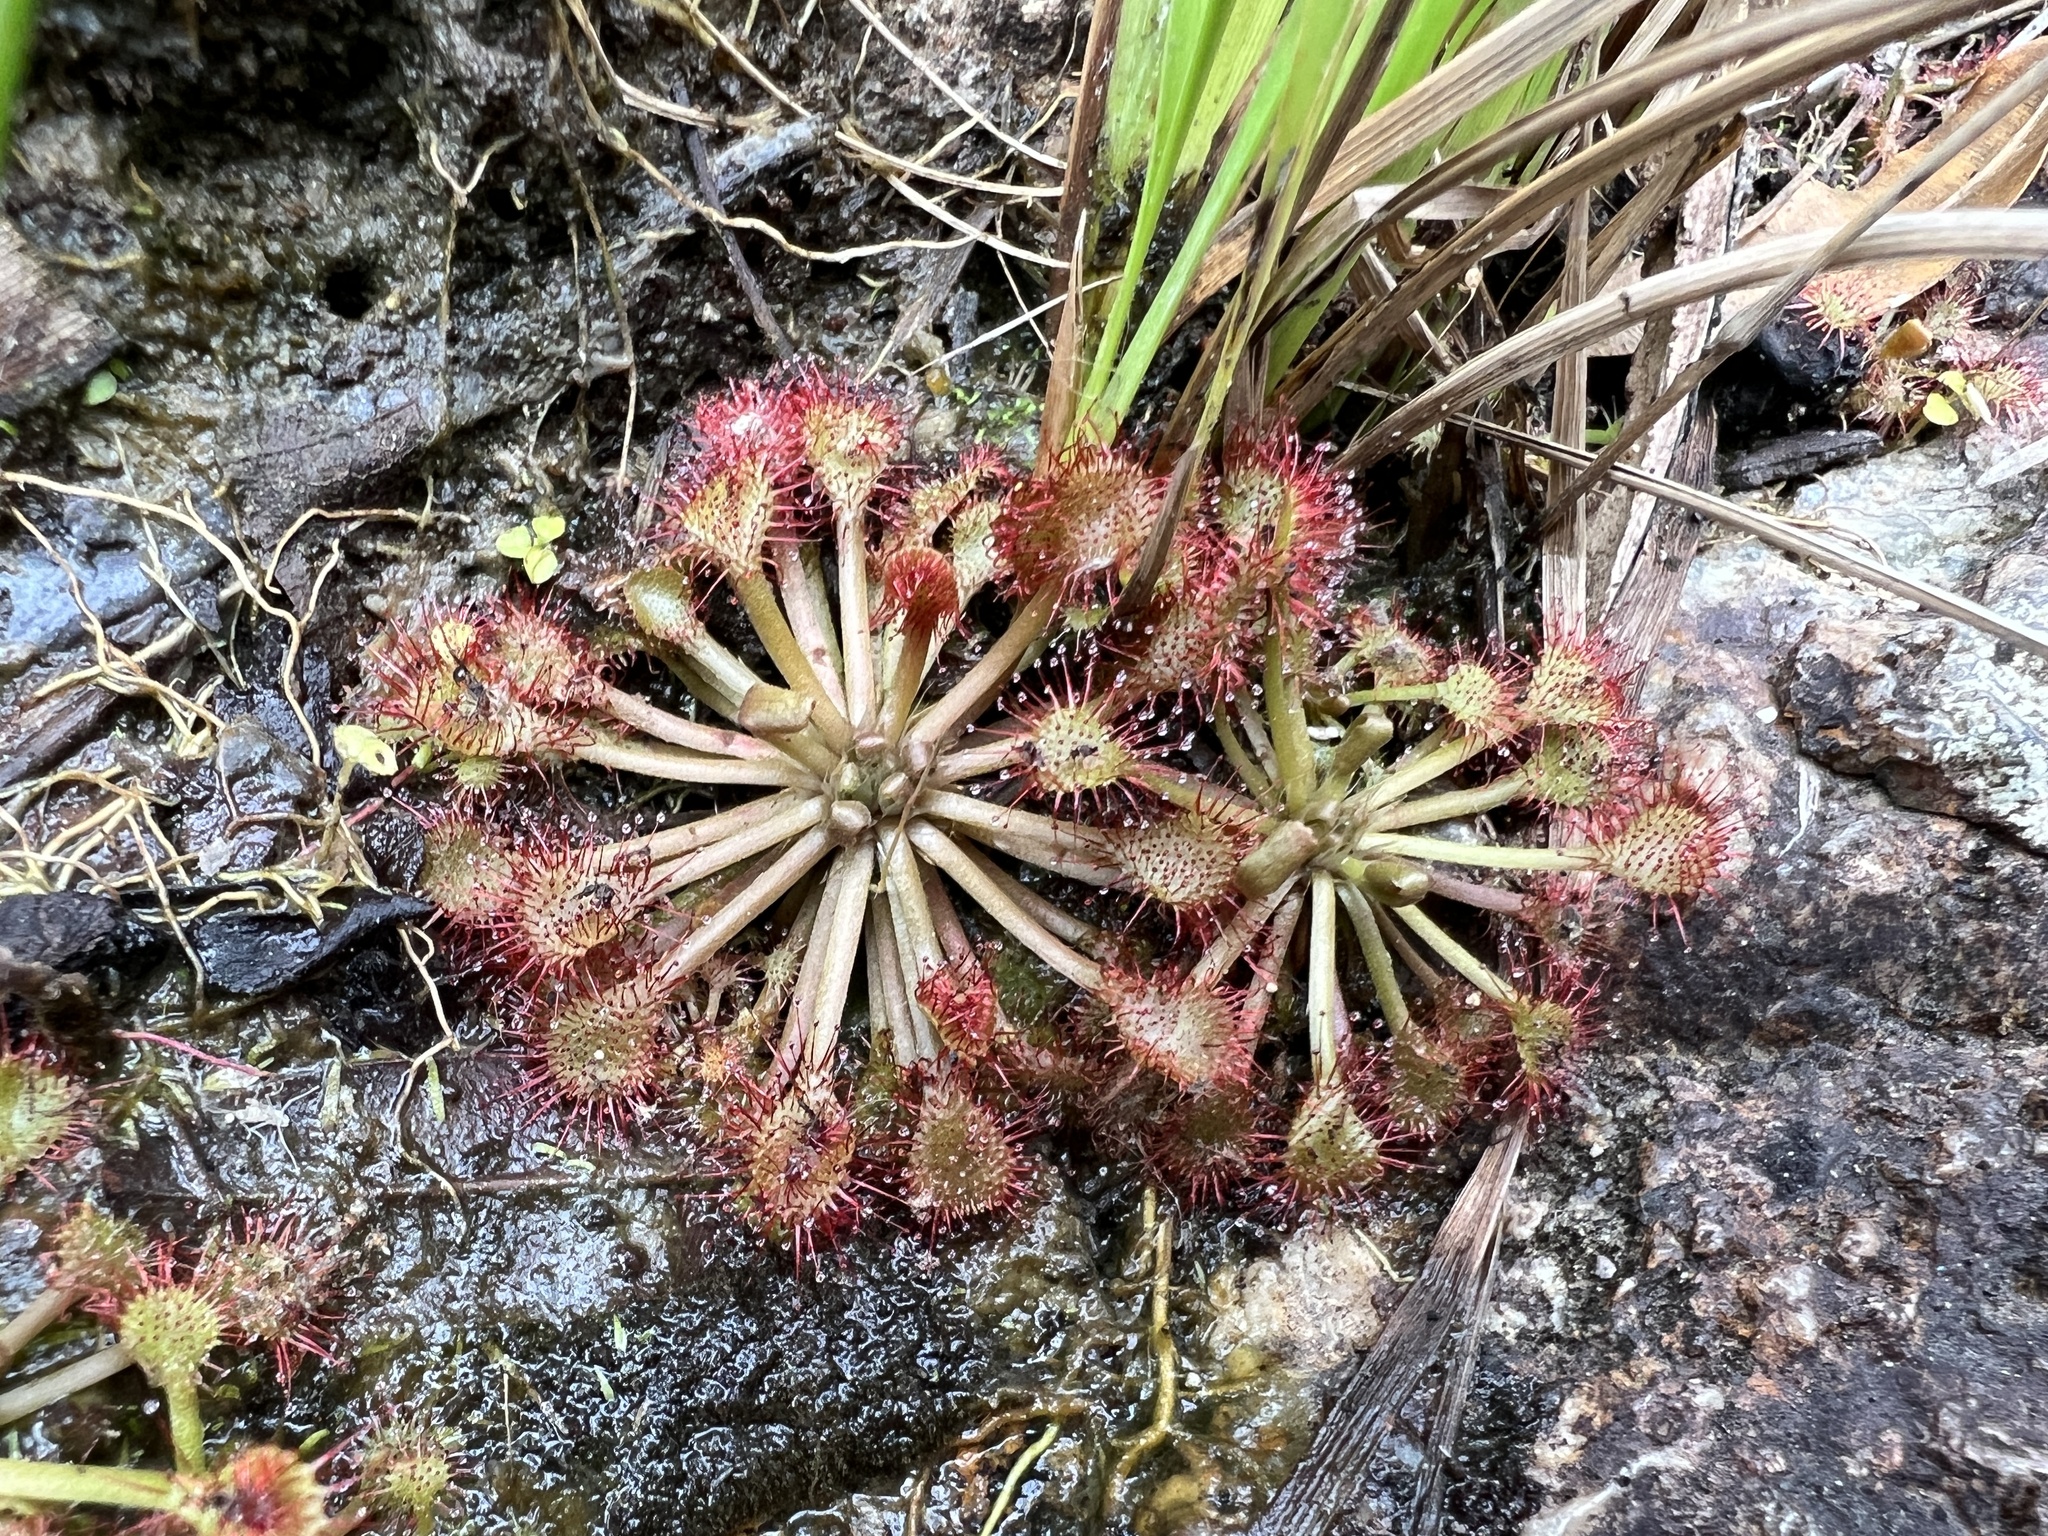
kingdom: Plantae
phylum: Tracheophyta
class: Magnoliopsida
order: Caryophyllales
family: Droseraceae
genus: Drosera
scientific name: Drosera capillaris
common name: Pink sundew
